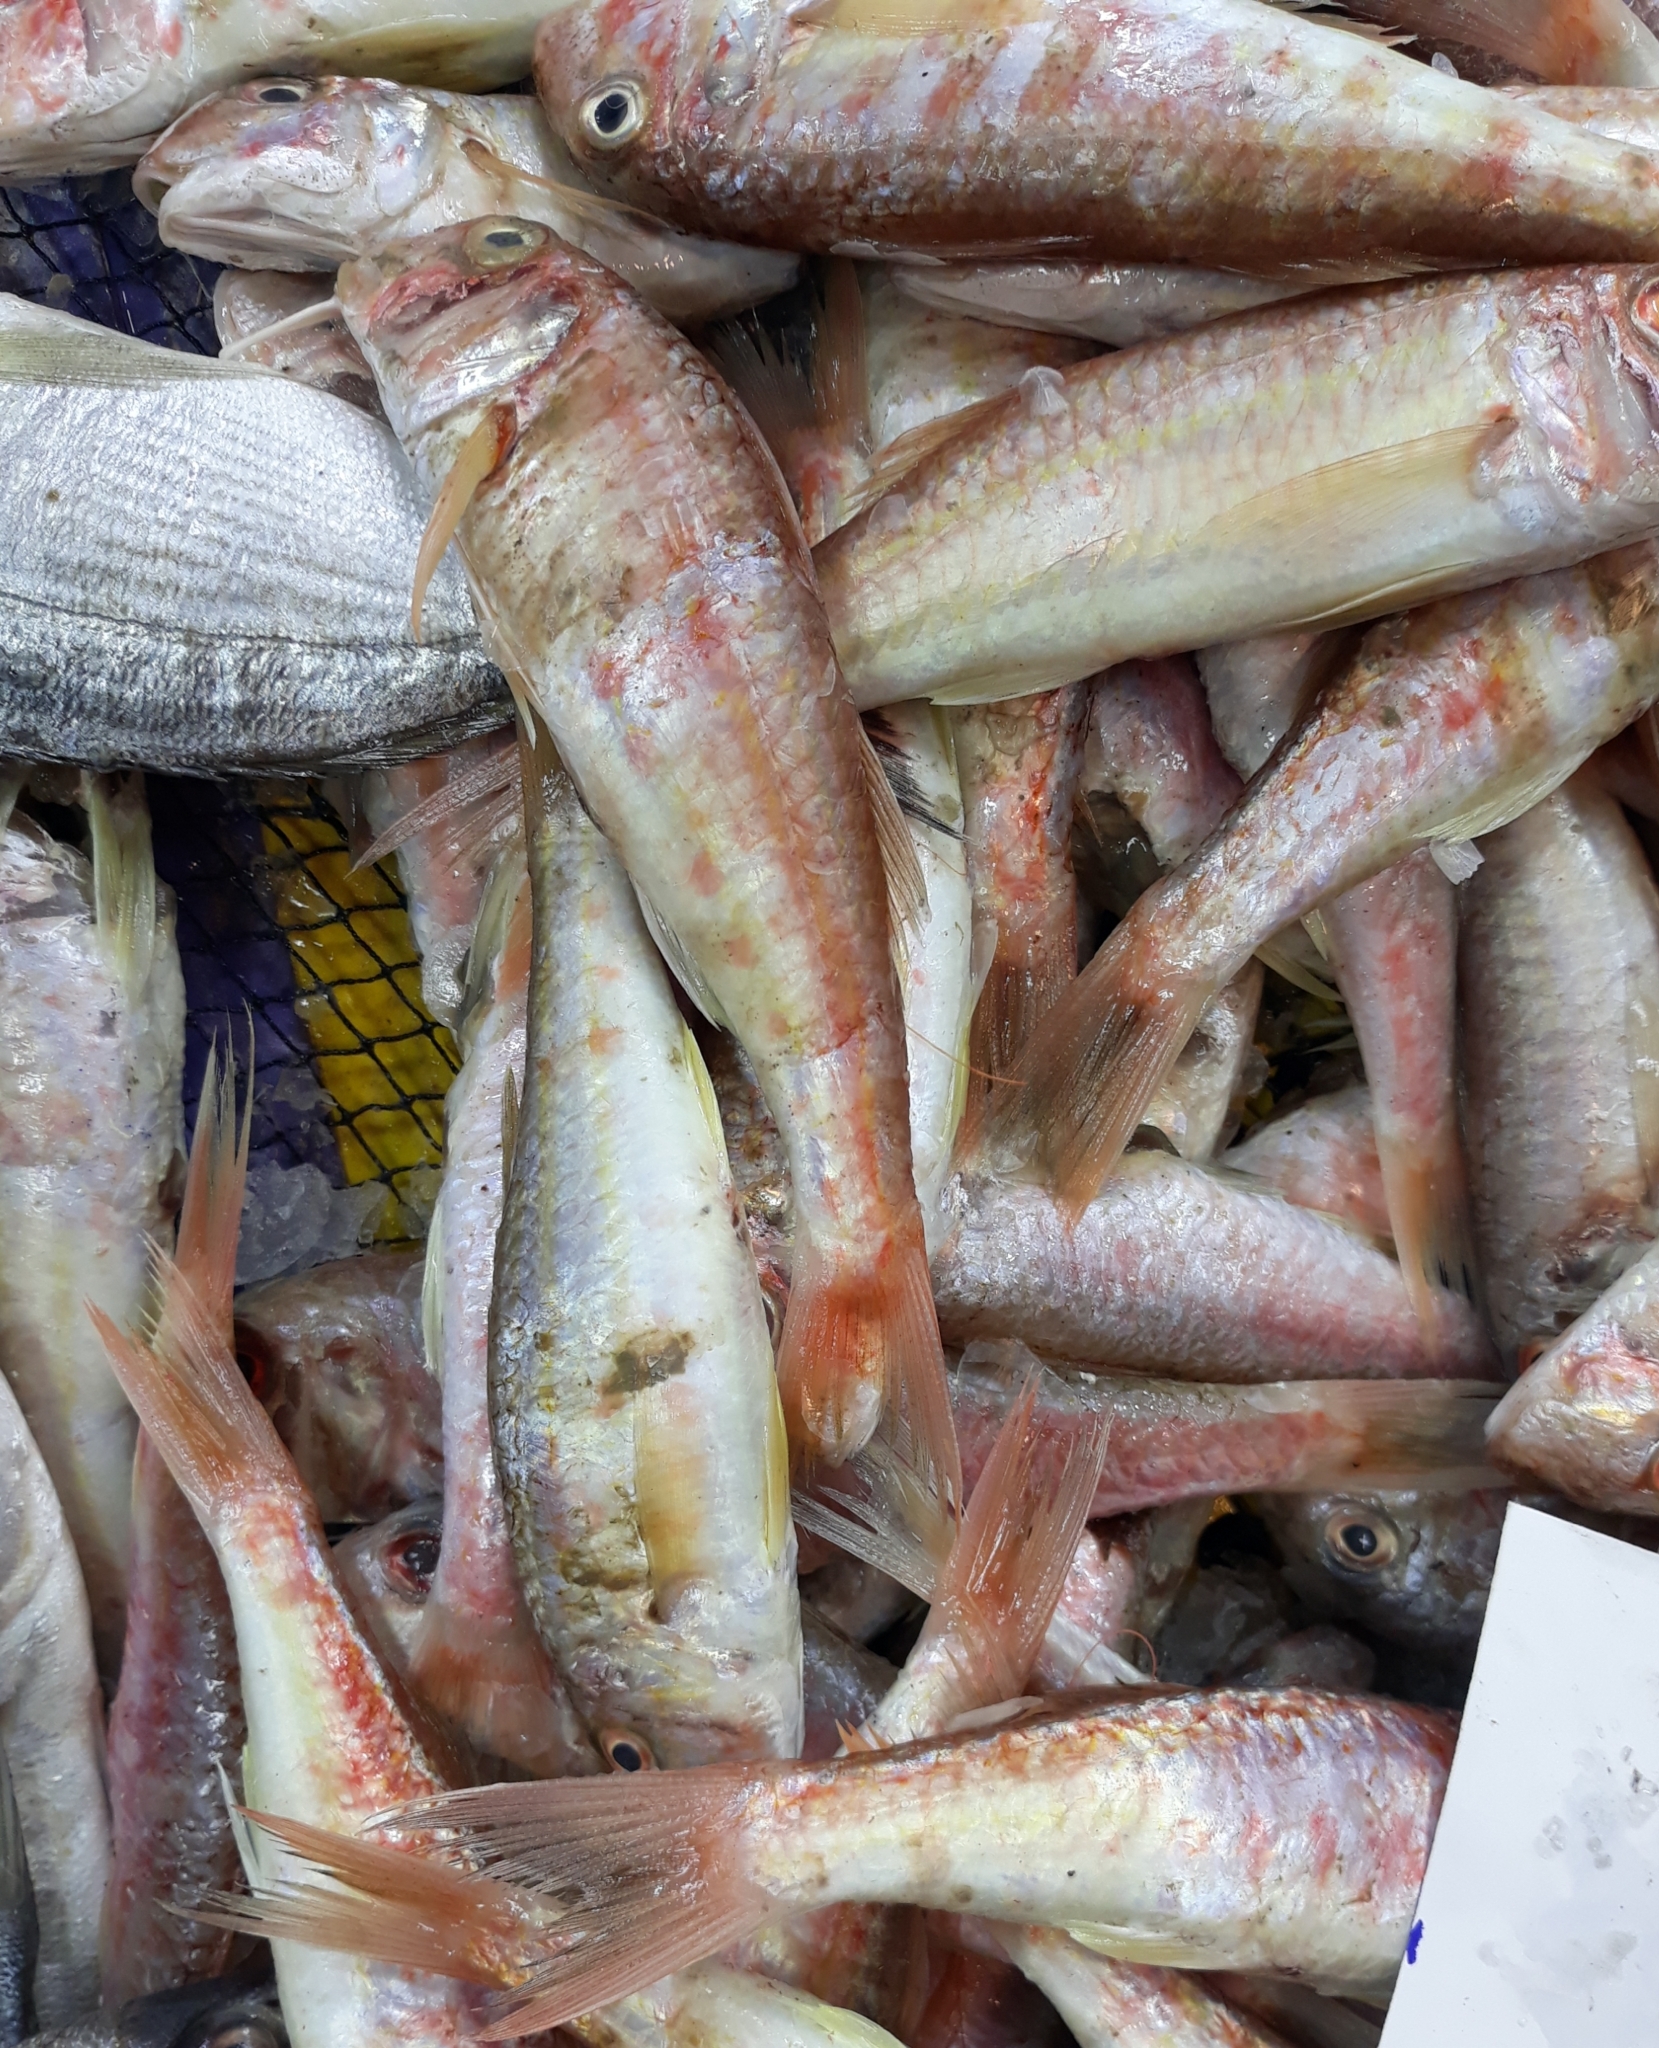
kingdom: Animalia
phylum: Chordata
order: Perciformes
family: Mullidae
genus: Mullus
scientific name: Mullus barbatus
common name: Blunt-snouted mullet
